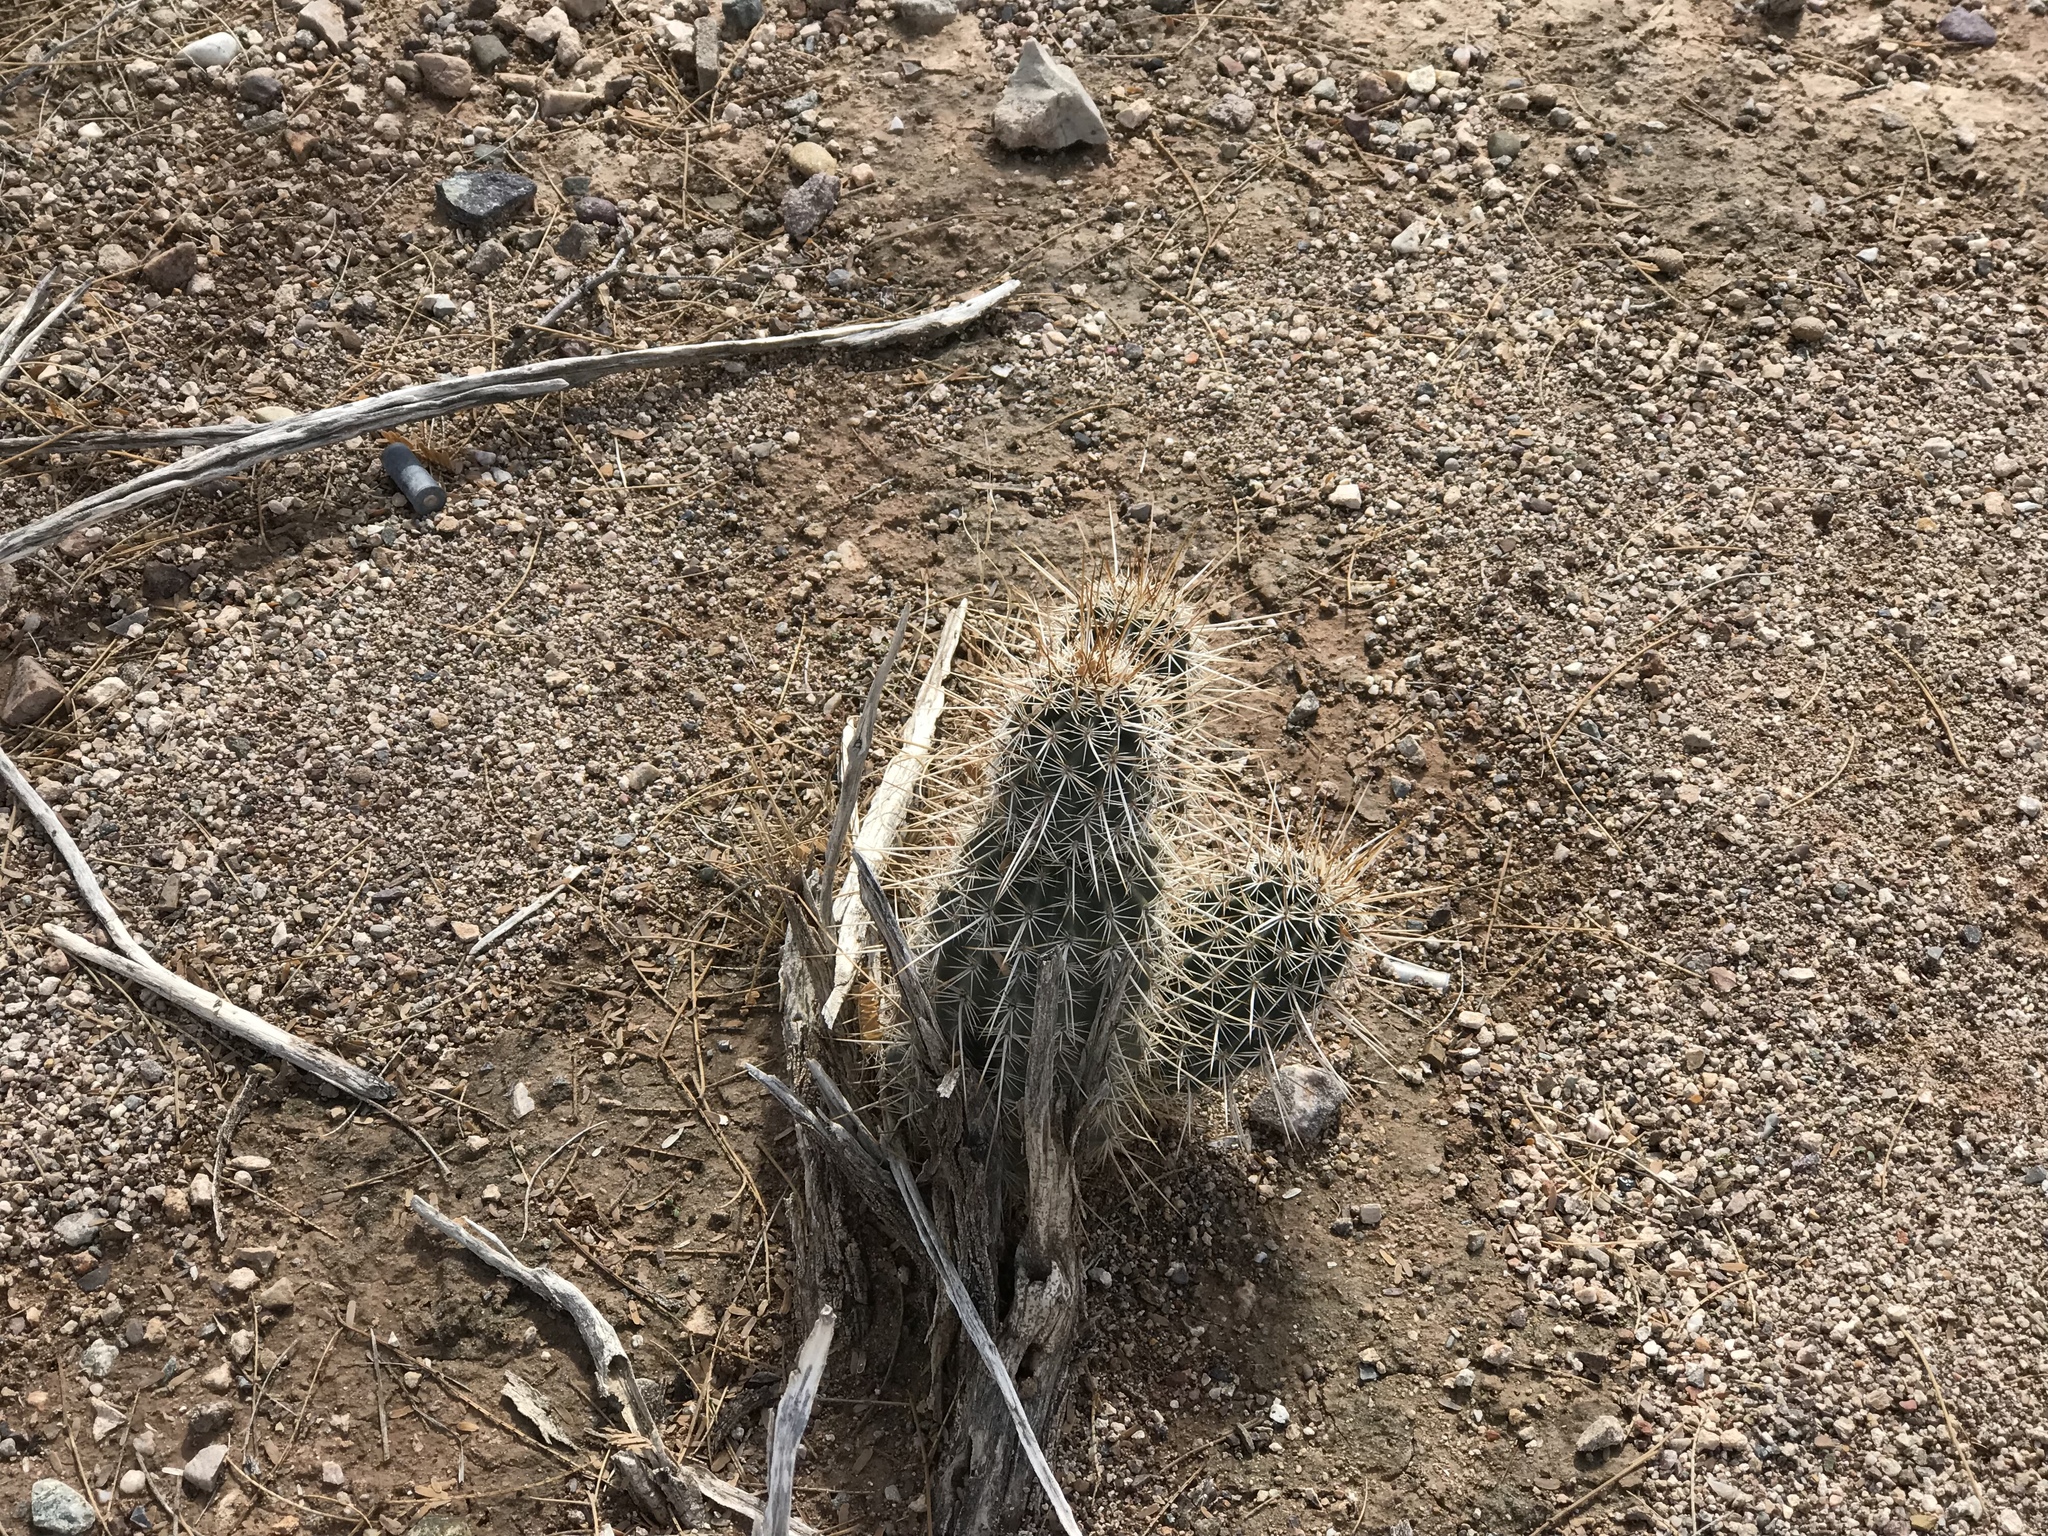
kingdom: Plantae
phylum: Tracheophyta
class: Magnoliopsida
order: Caryophyllales
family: Cactaceae
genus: Echinocereus
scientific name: Echinocereus engelmannii
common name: Engelmann's hedgehog cactus
